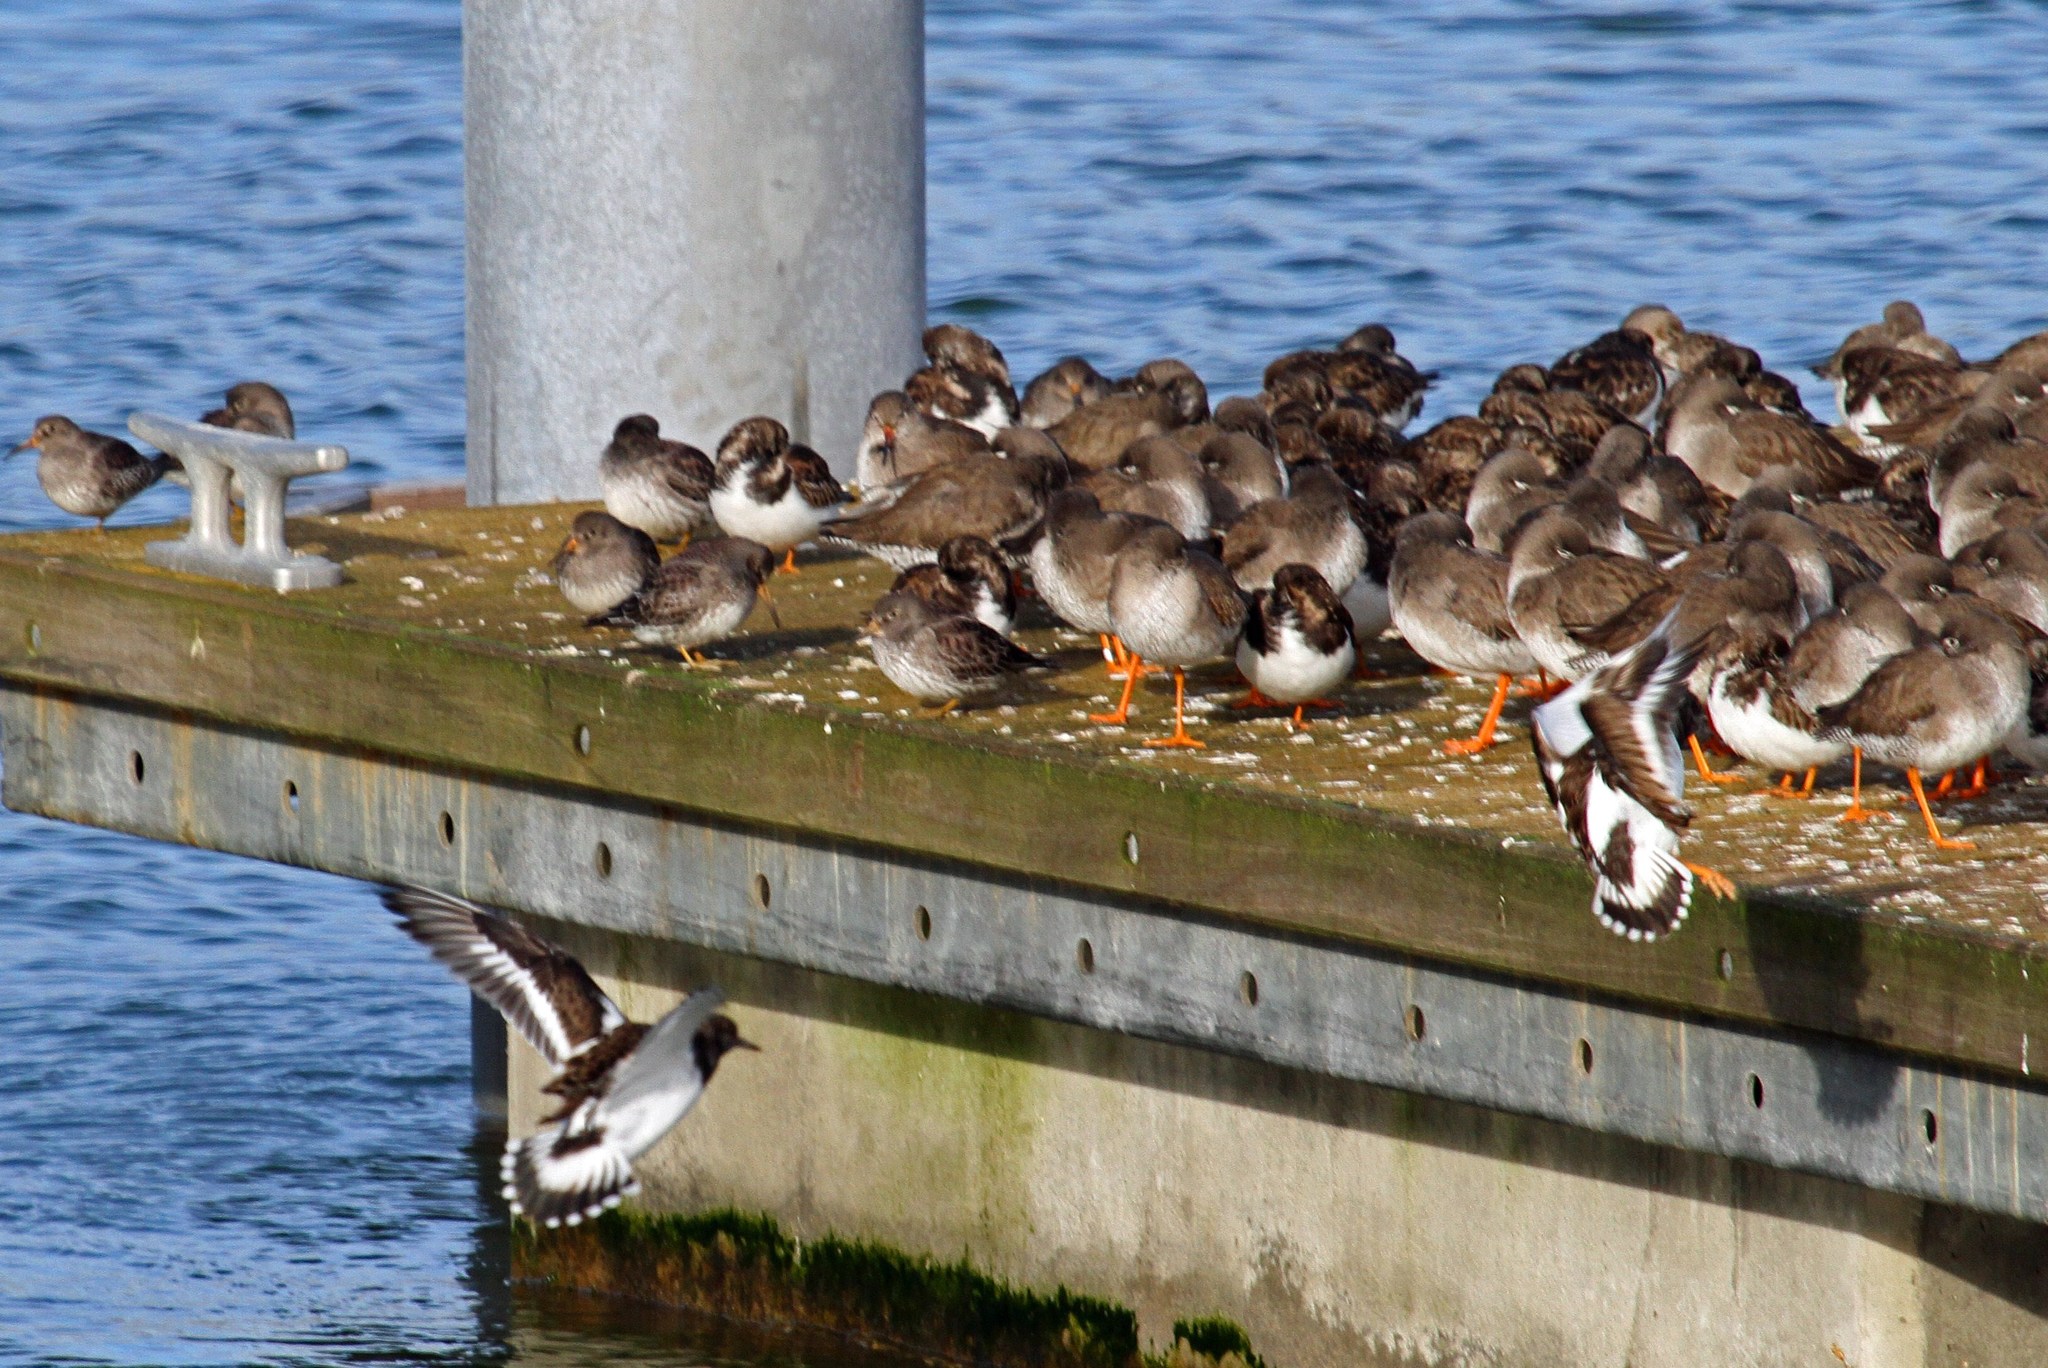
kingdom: Animalia
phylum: Chordata
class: Aves
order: Charadriiformes
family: Scolopacidae
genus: Arenaria
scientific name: Arenaria interpres
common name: Ruddy turnstone
